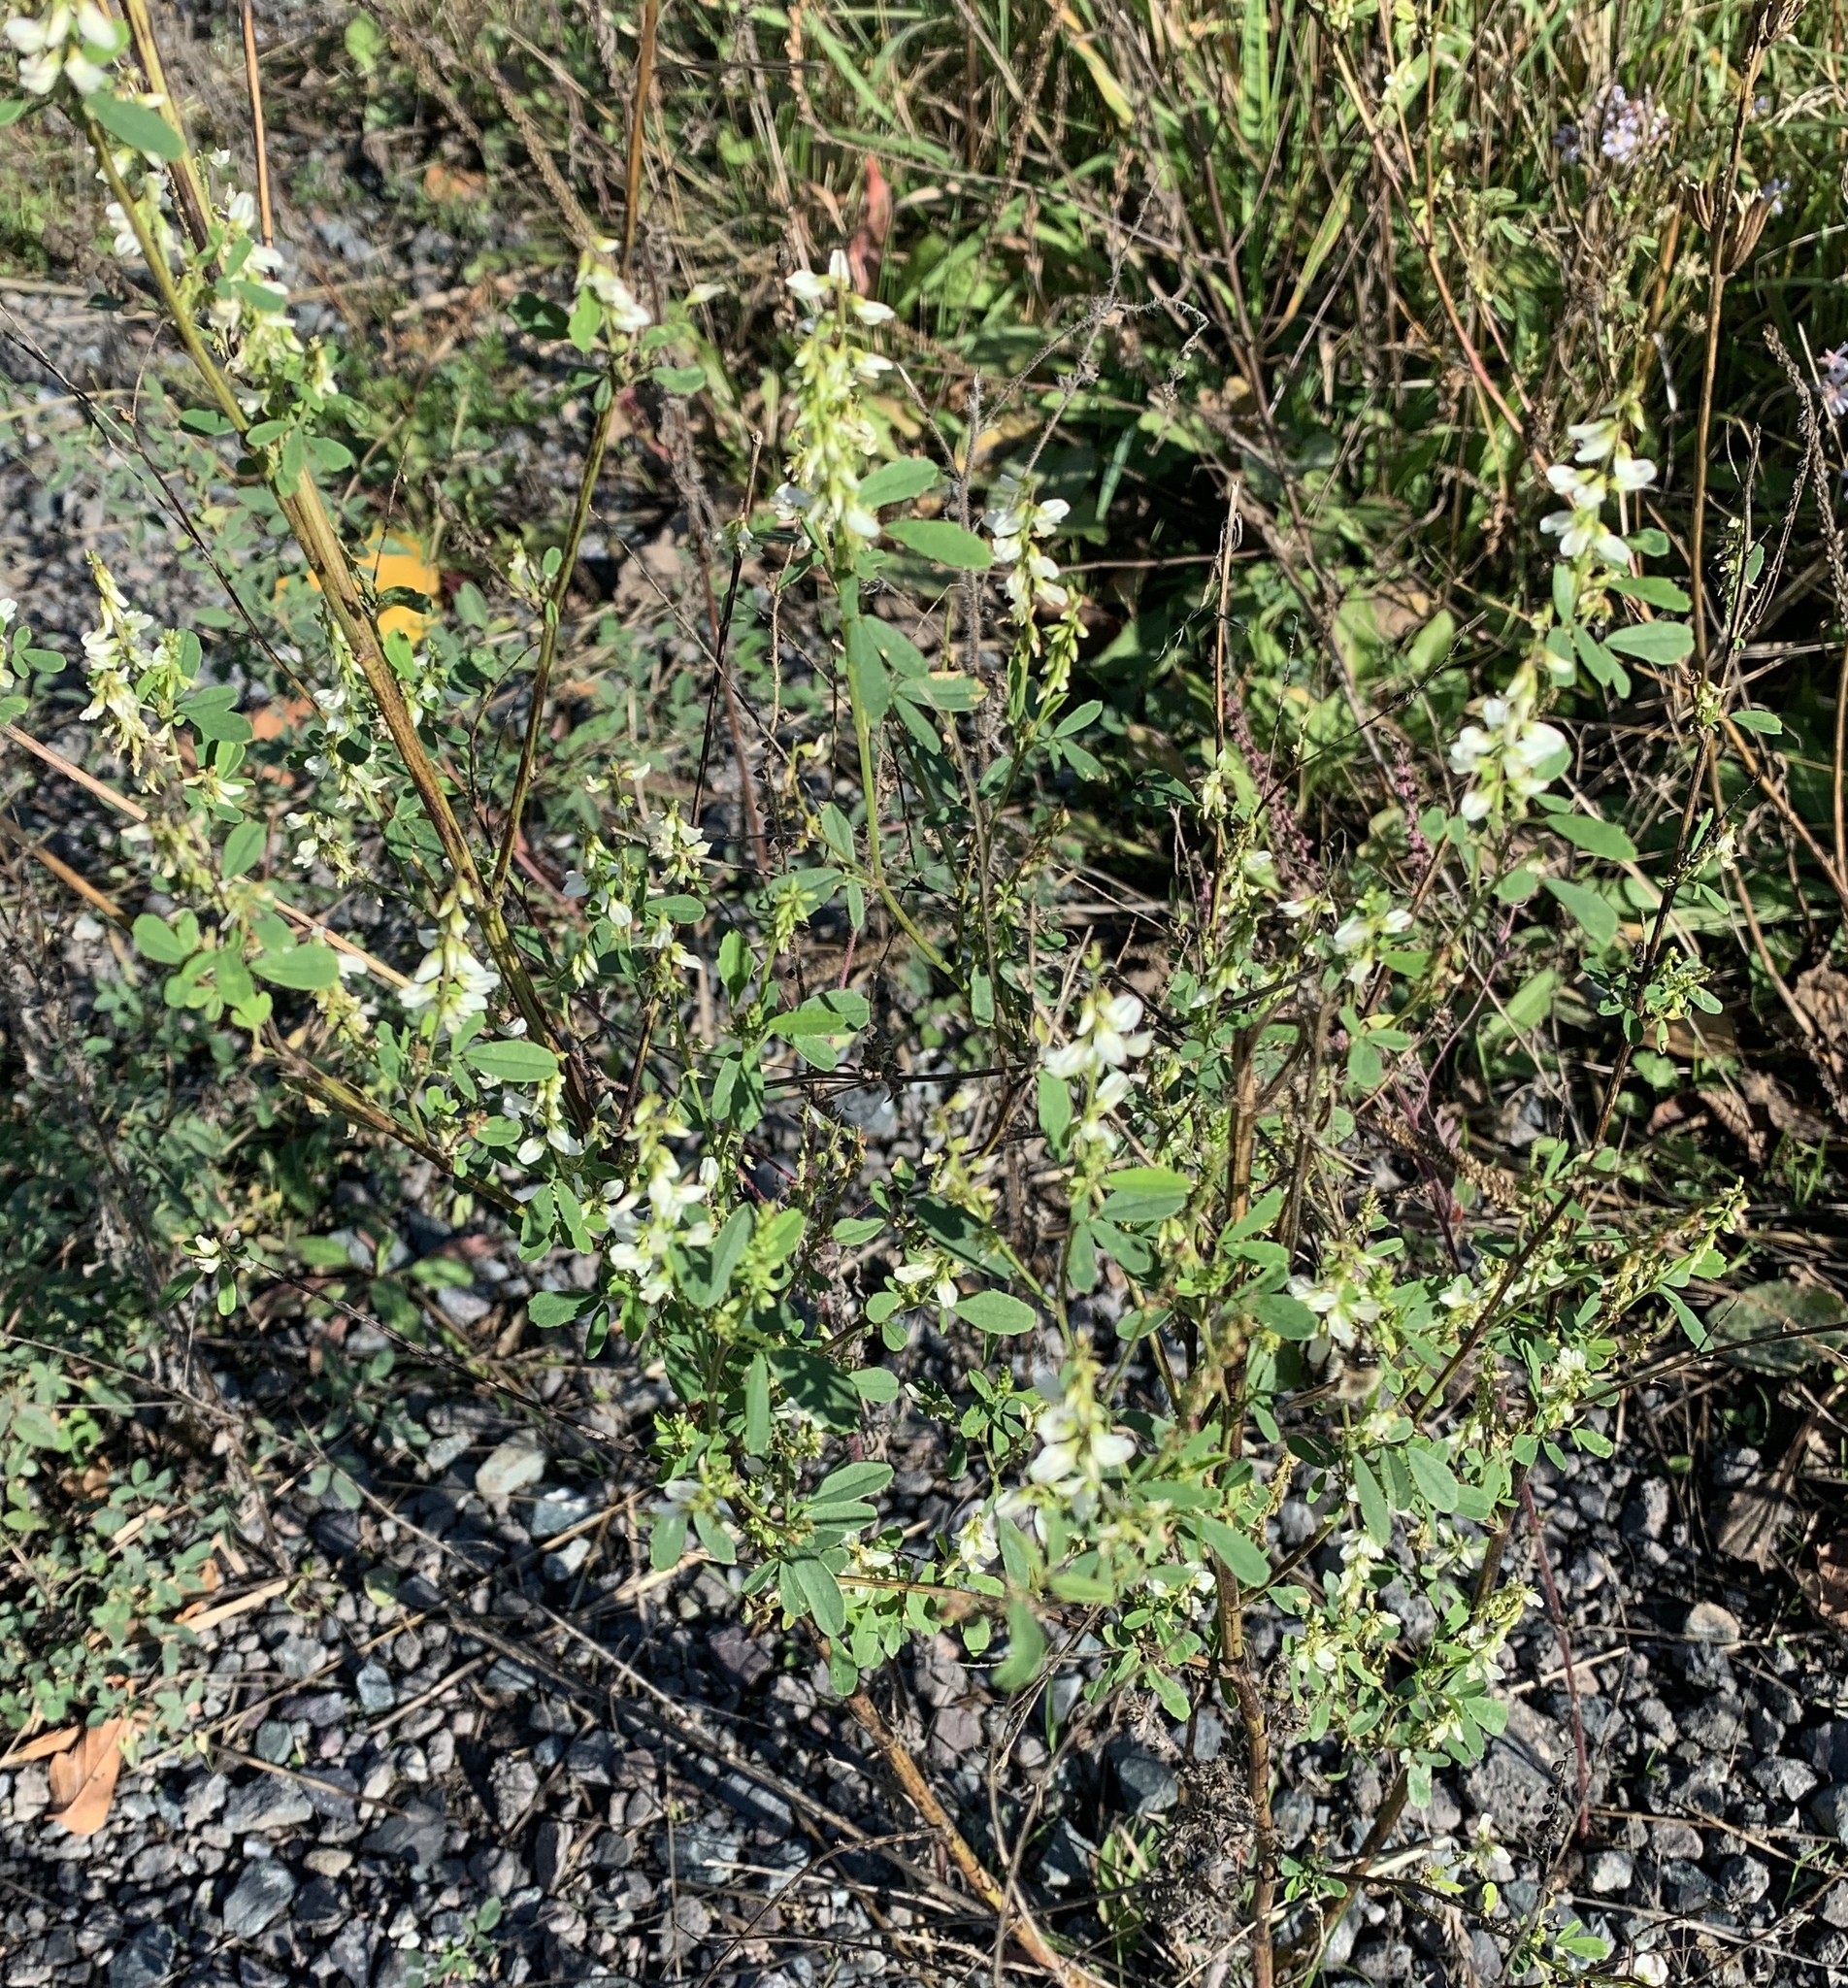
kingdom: Plantae
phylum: Tracheophyta
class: Magnoliopsida
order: Fabales
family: Fabaceae
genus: Melilotus
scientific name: Melilotus albus
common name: White melilot
